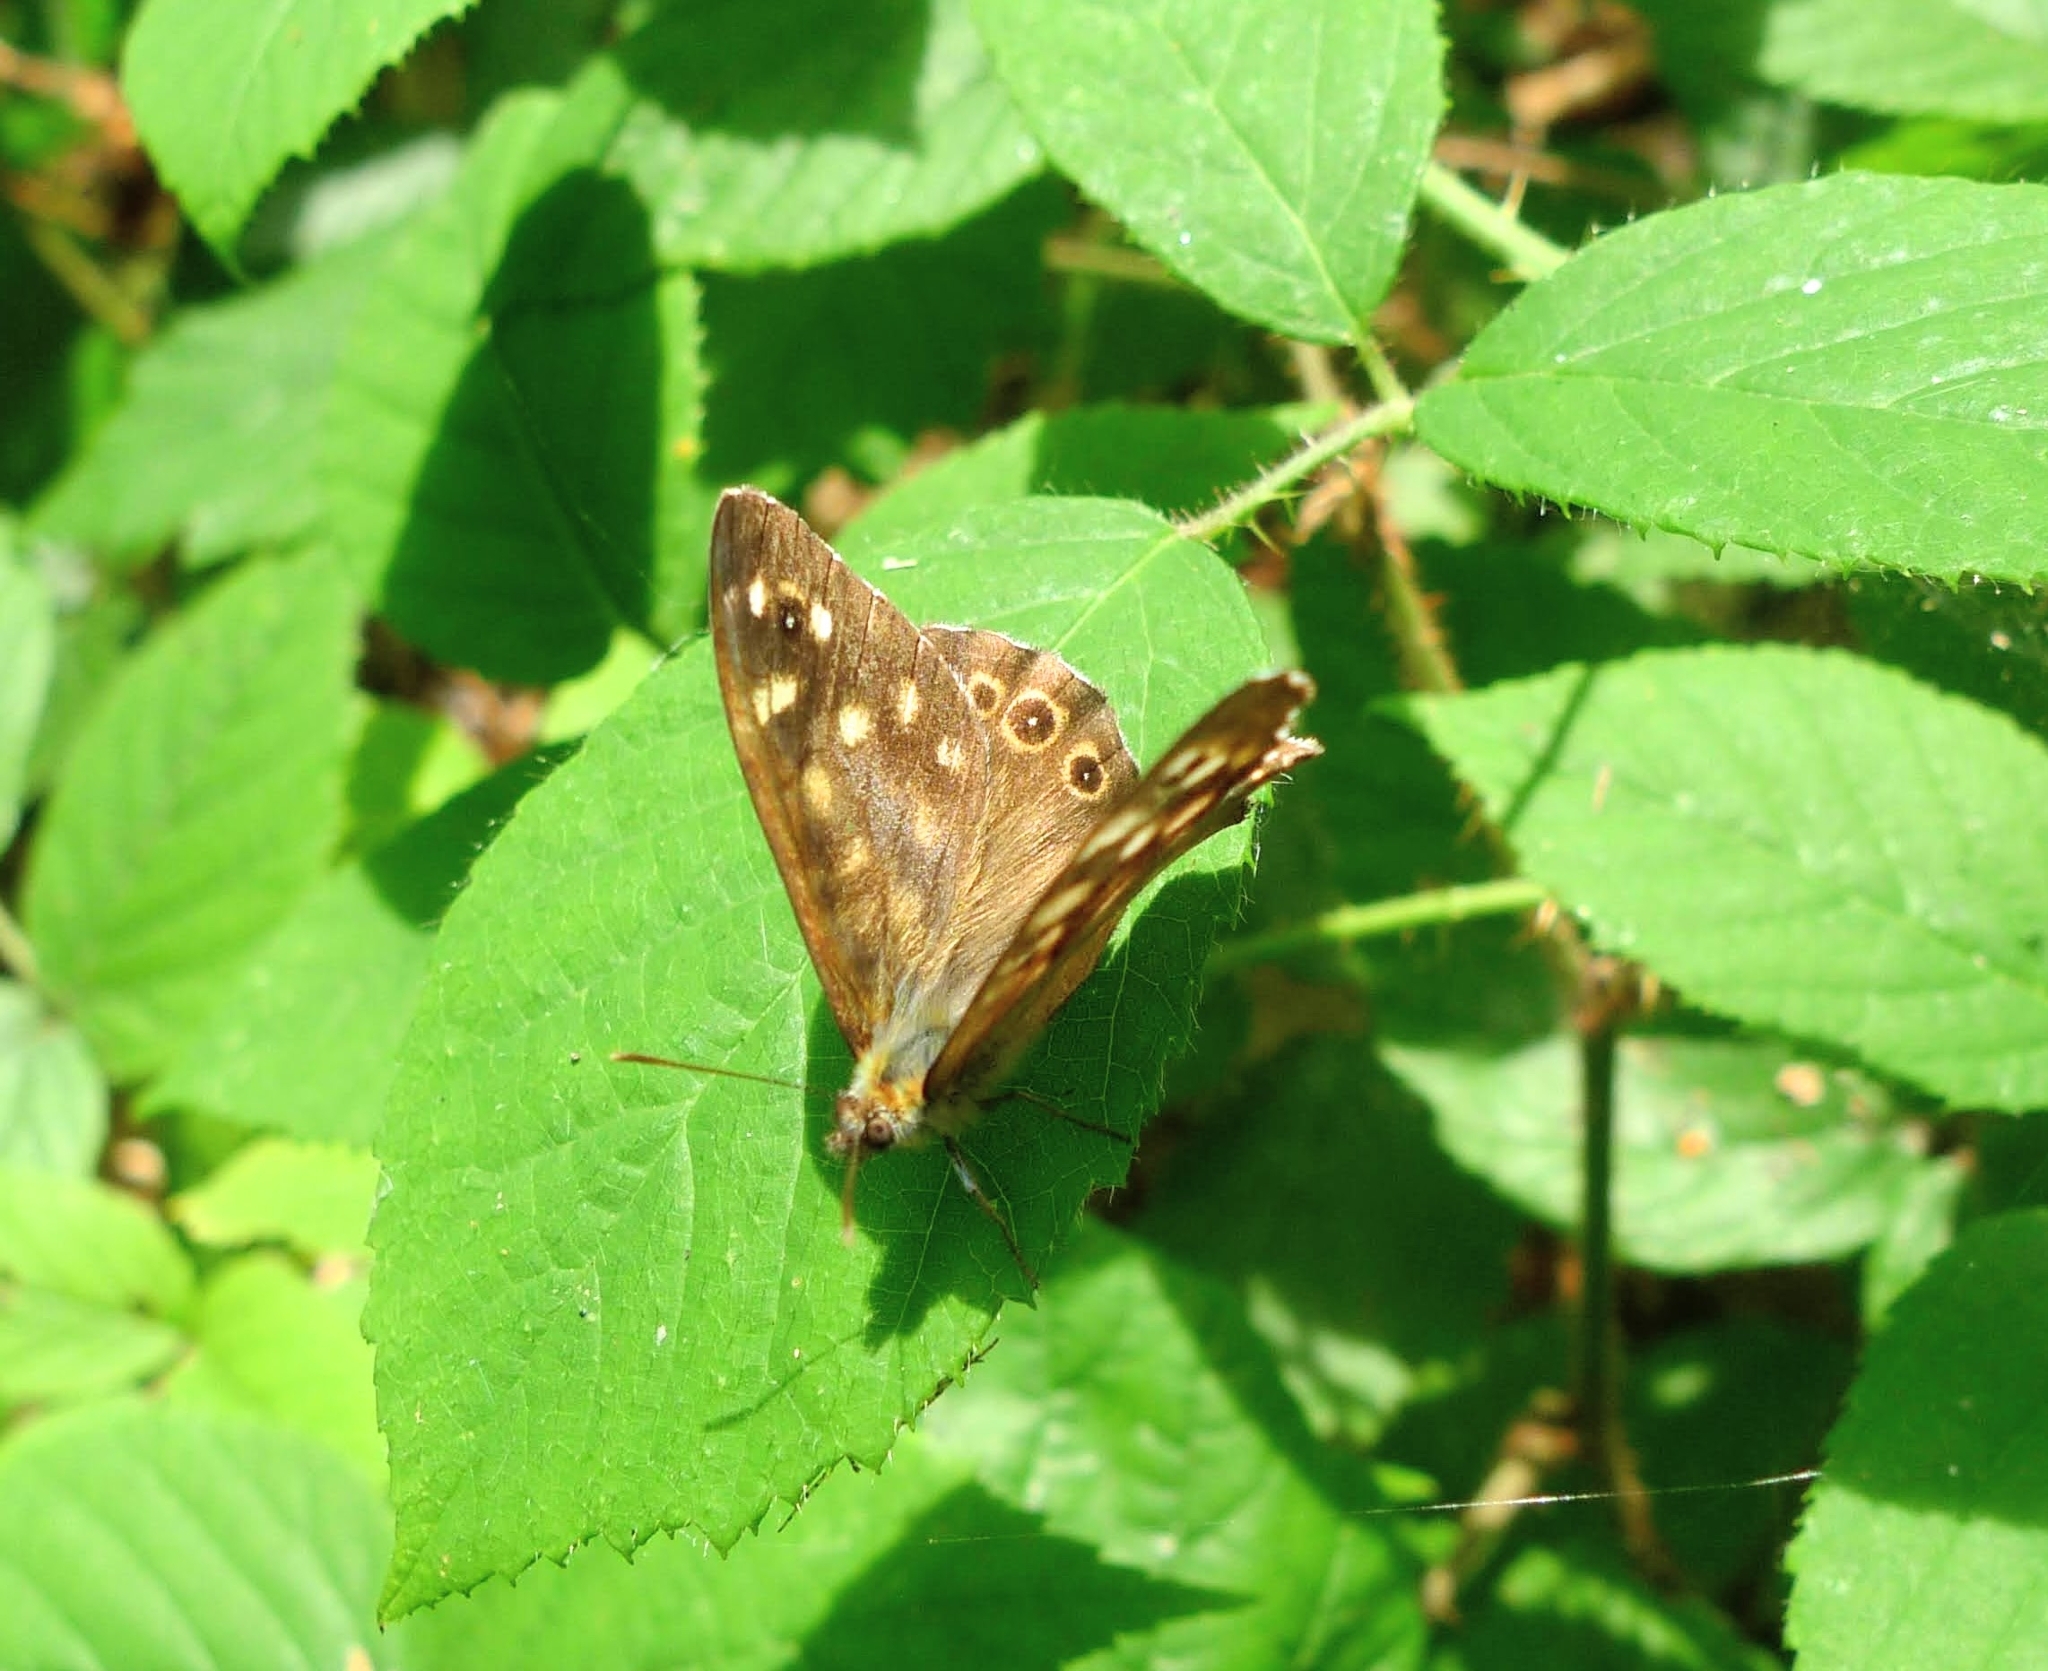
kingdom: Animalia
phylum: Arthropoda
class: Insecta
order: Lepidoptera
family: Nymphalidae
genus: Pararge
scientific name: Pararge aegeria
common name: Speckled wood
